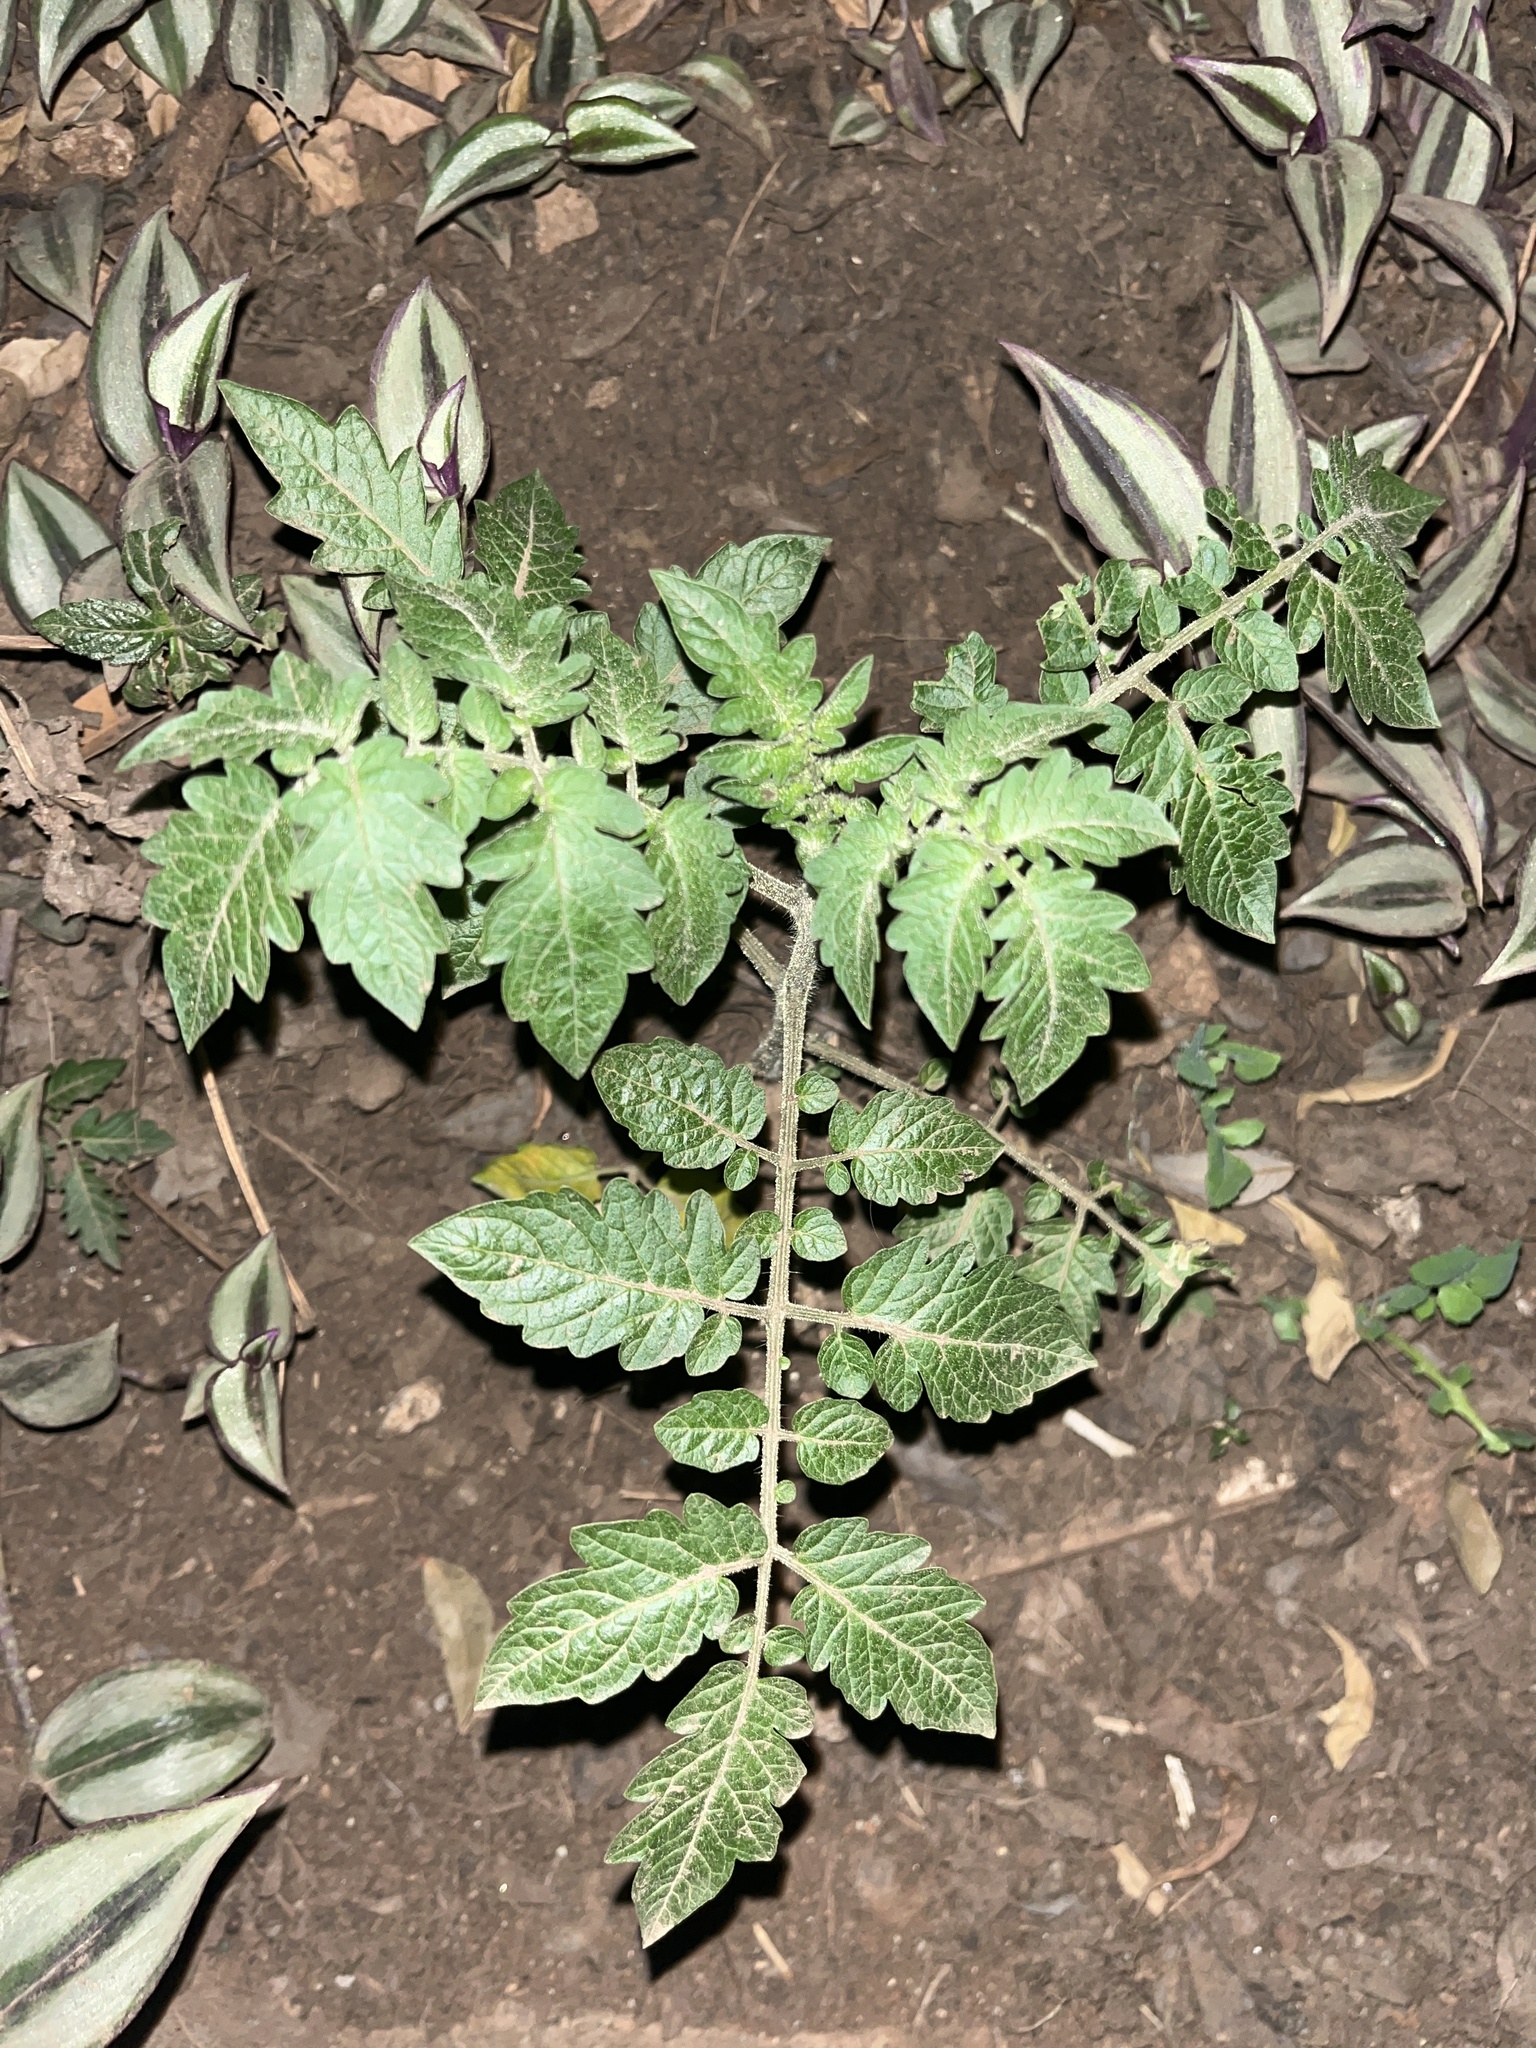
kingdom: Plantae
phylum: Tracheophyta
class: Magnoliopsida
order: Solanales
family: Solanaceae
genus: Solanum
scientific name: Solanum lycopersicum
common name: Garden tomato
